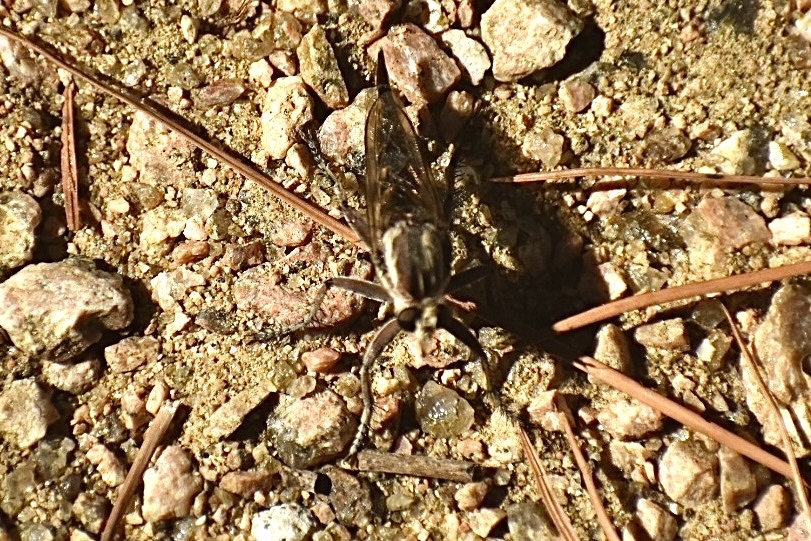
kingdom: Animalia
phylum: Arthropoda
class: Insecta
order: Diptera
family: Asilidae
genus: Triorla
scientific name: Triorla interrupta
